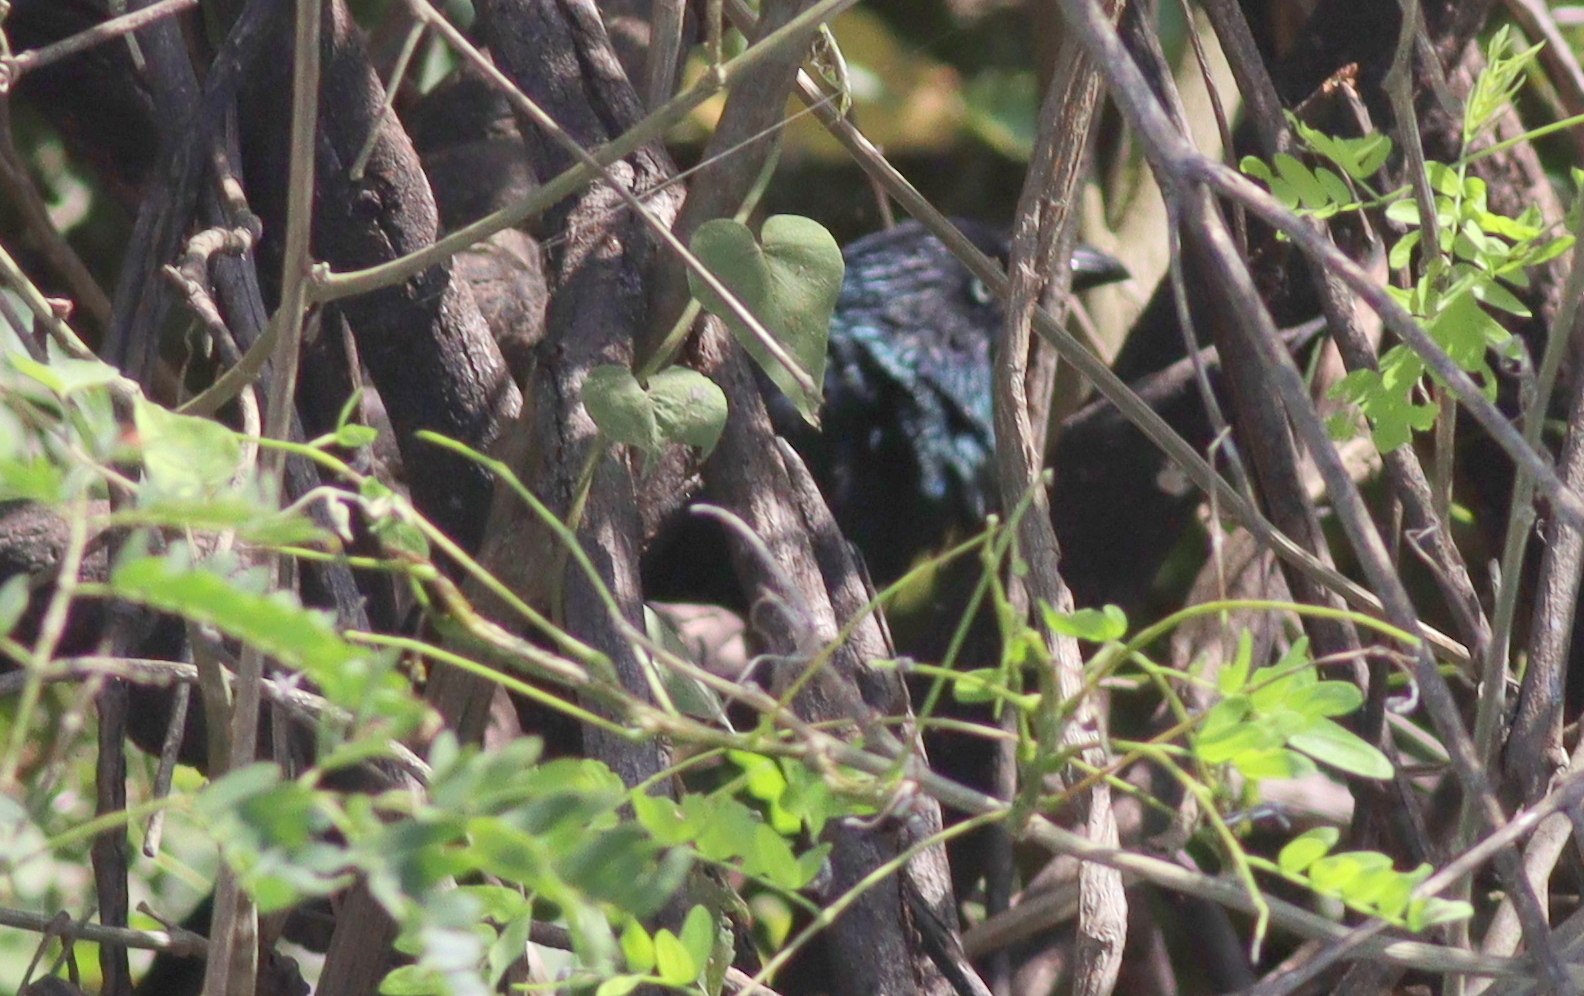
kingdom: Animalia
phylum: Chordata
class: Aves
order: Cuculiformes
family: Cuculidae
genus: Crotophaga
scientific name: Crotophaga major
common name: Greater ani
